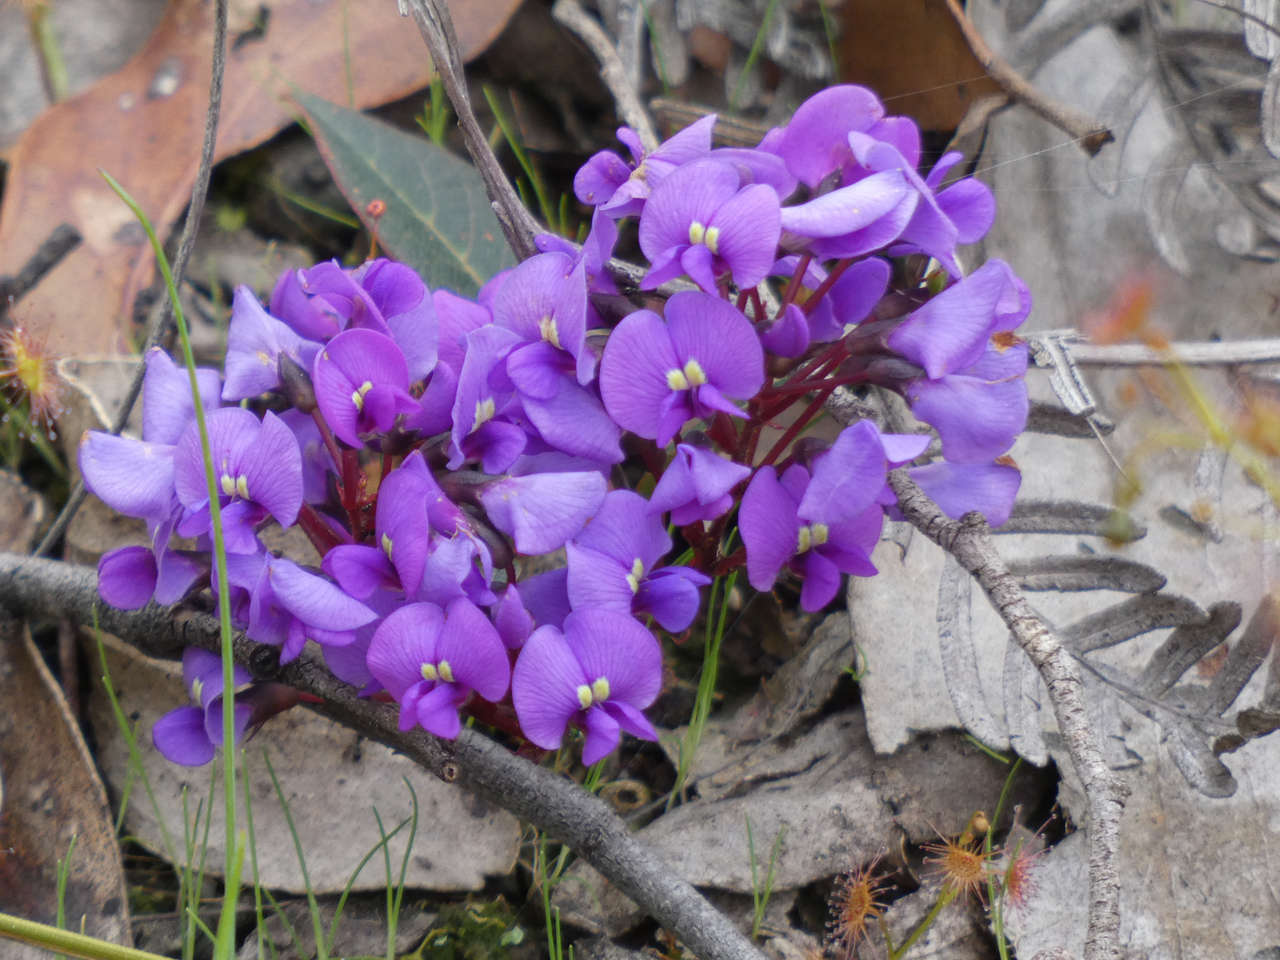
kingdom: Plantae
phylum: Tracheophyta
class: Magnoliopsida
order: Fabales
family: Fabaceae
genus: Hardenbergia
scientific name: Hardenbergia violacea
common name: Coral-pea
